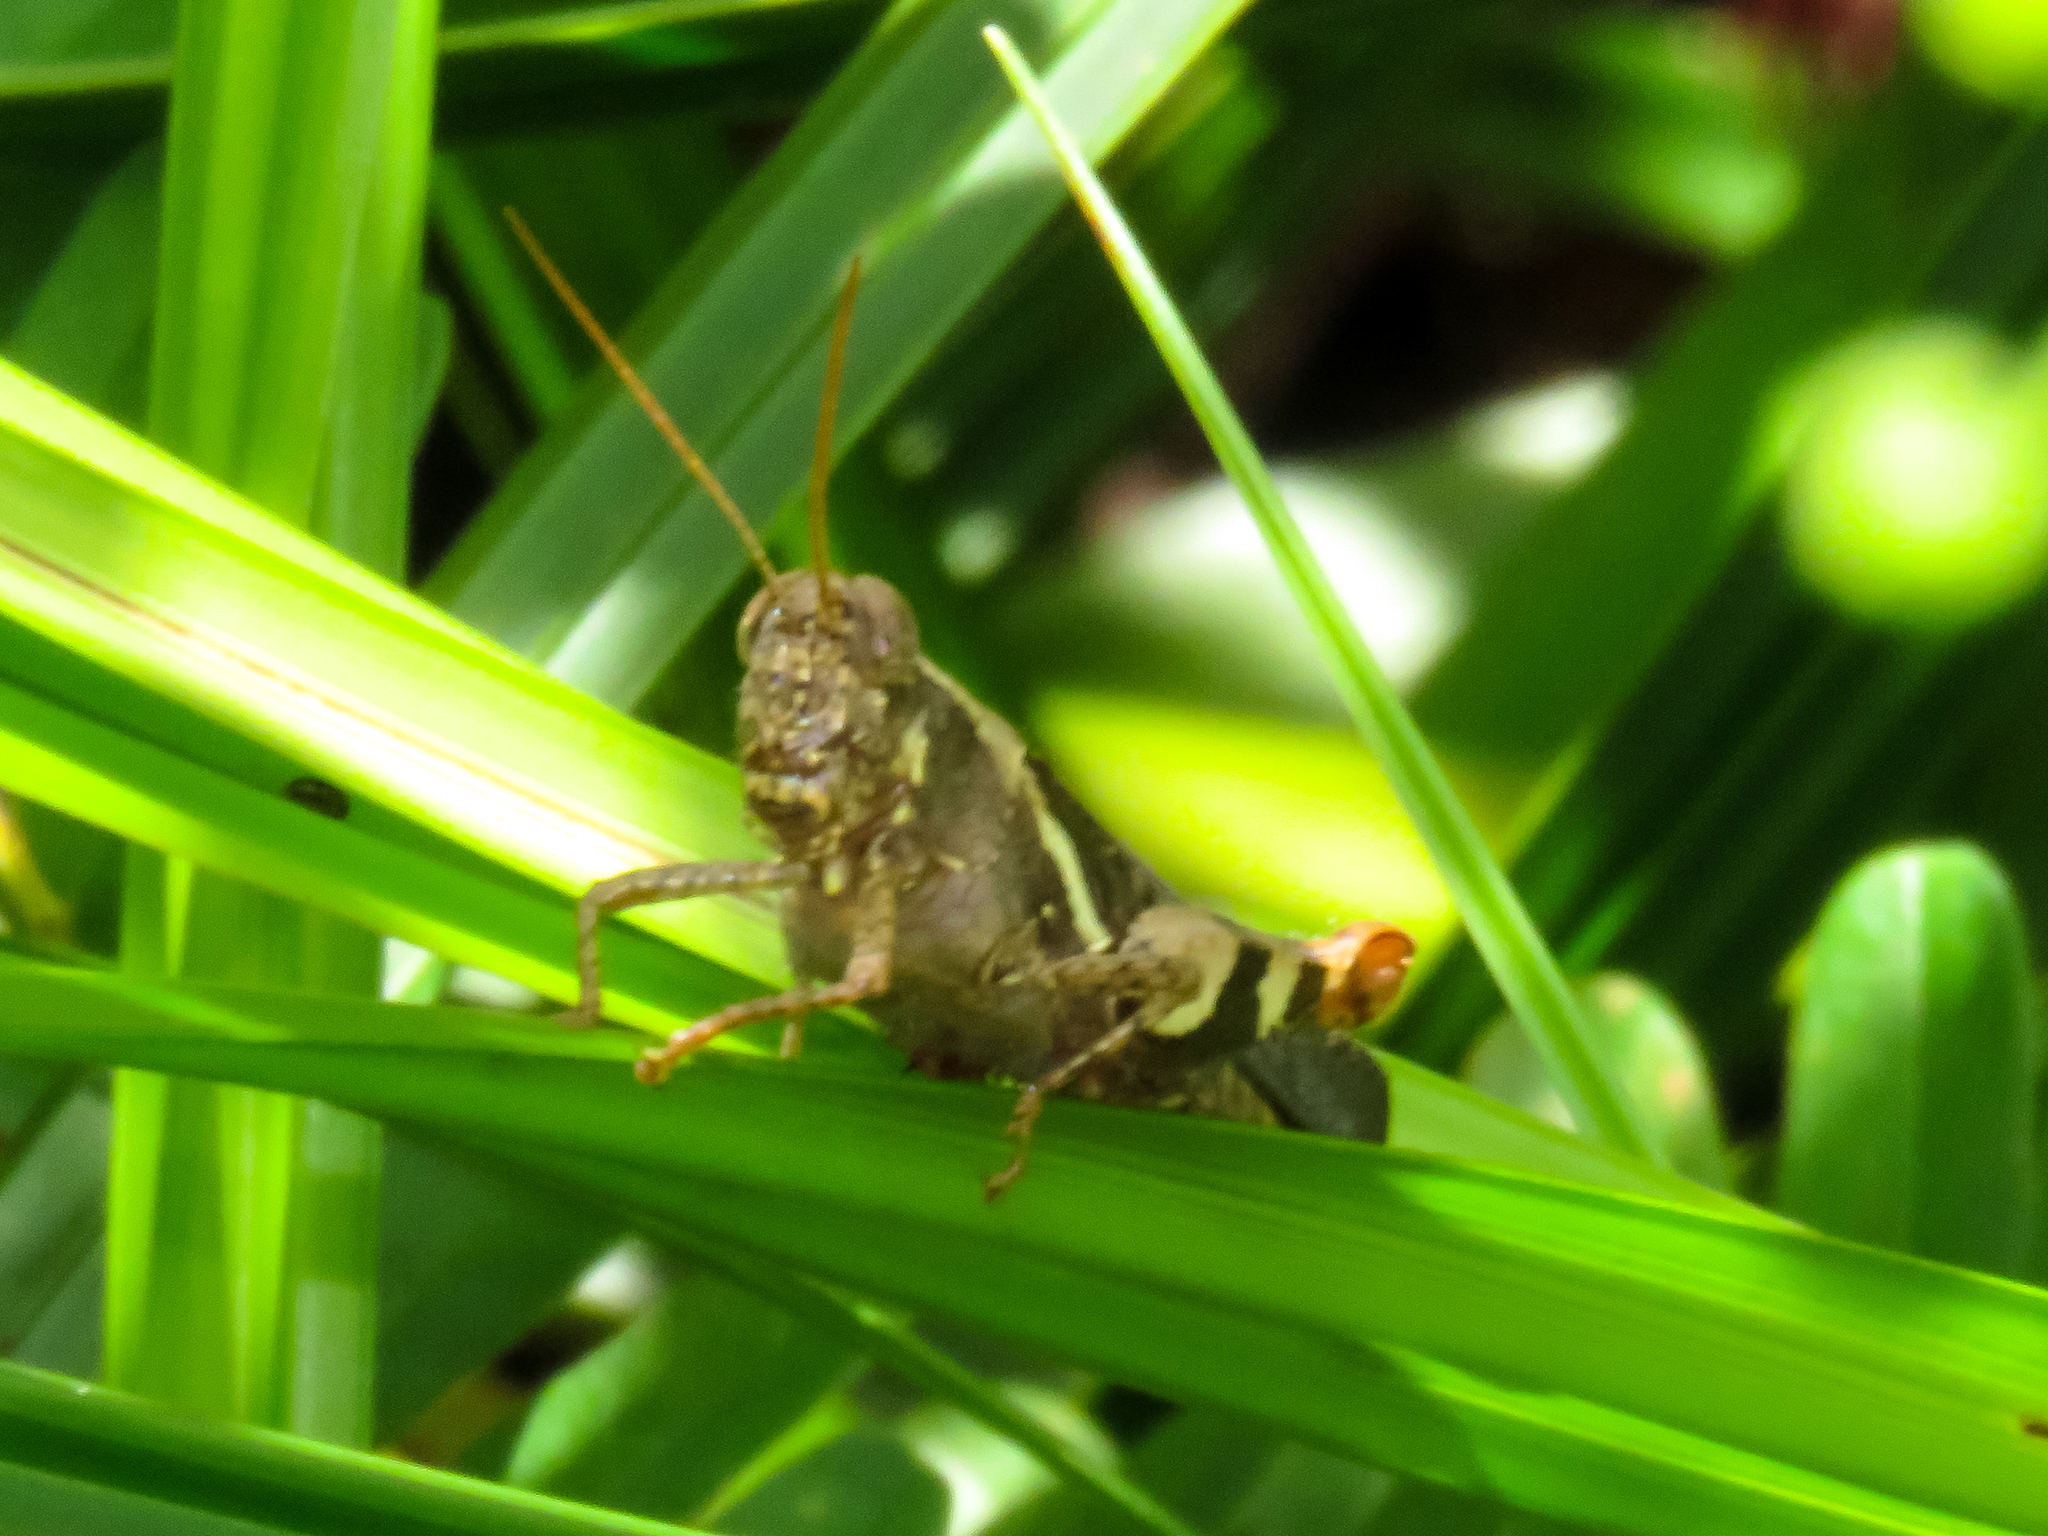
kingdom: Animalia
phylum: Arthropoda
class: Insecta
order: Orthoptera
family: Acrididae
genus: Xenocatantops
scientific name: Xenocatantops humile
